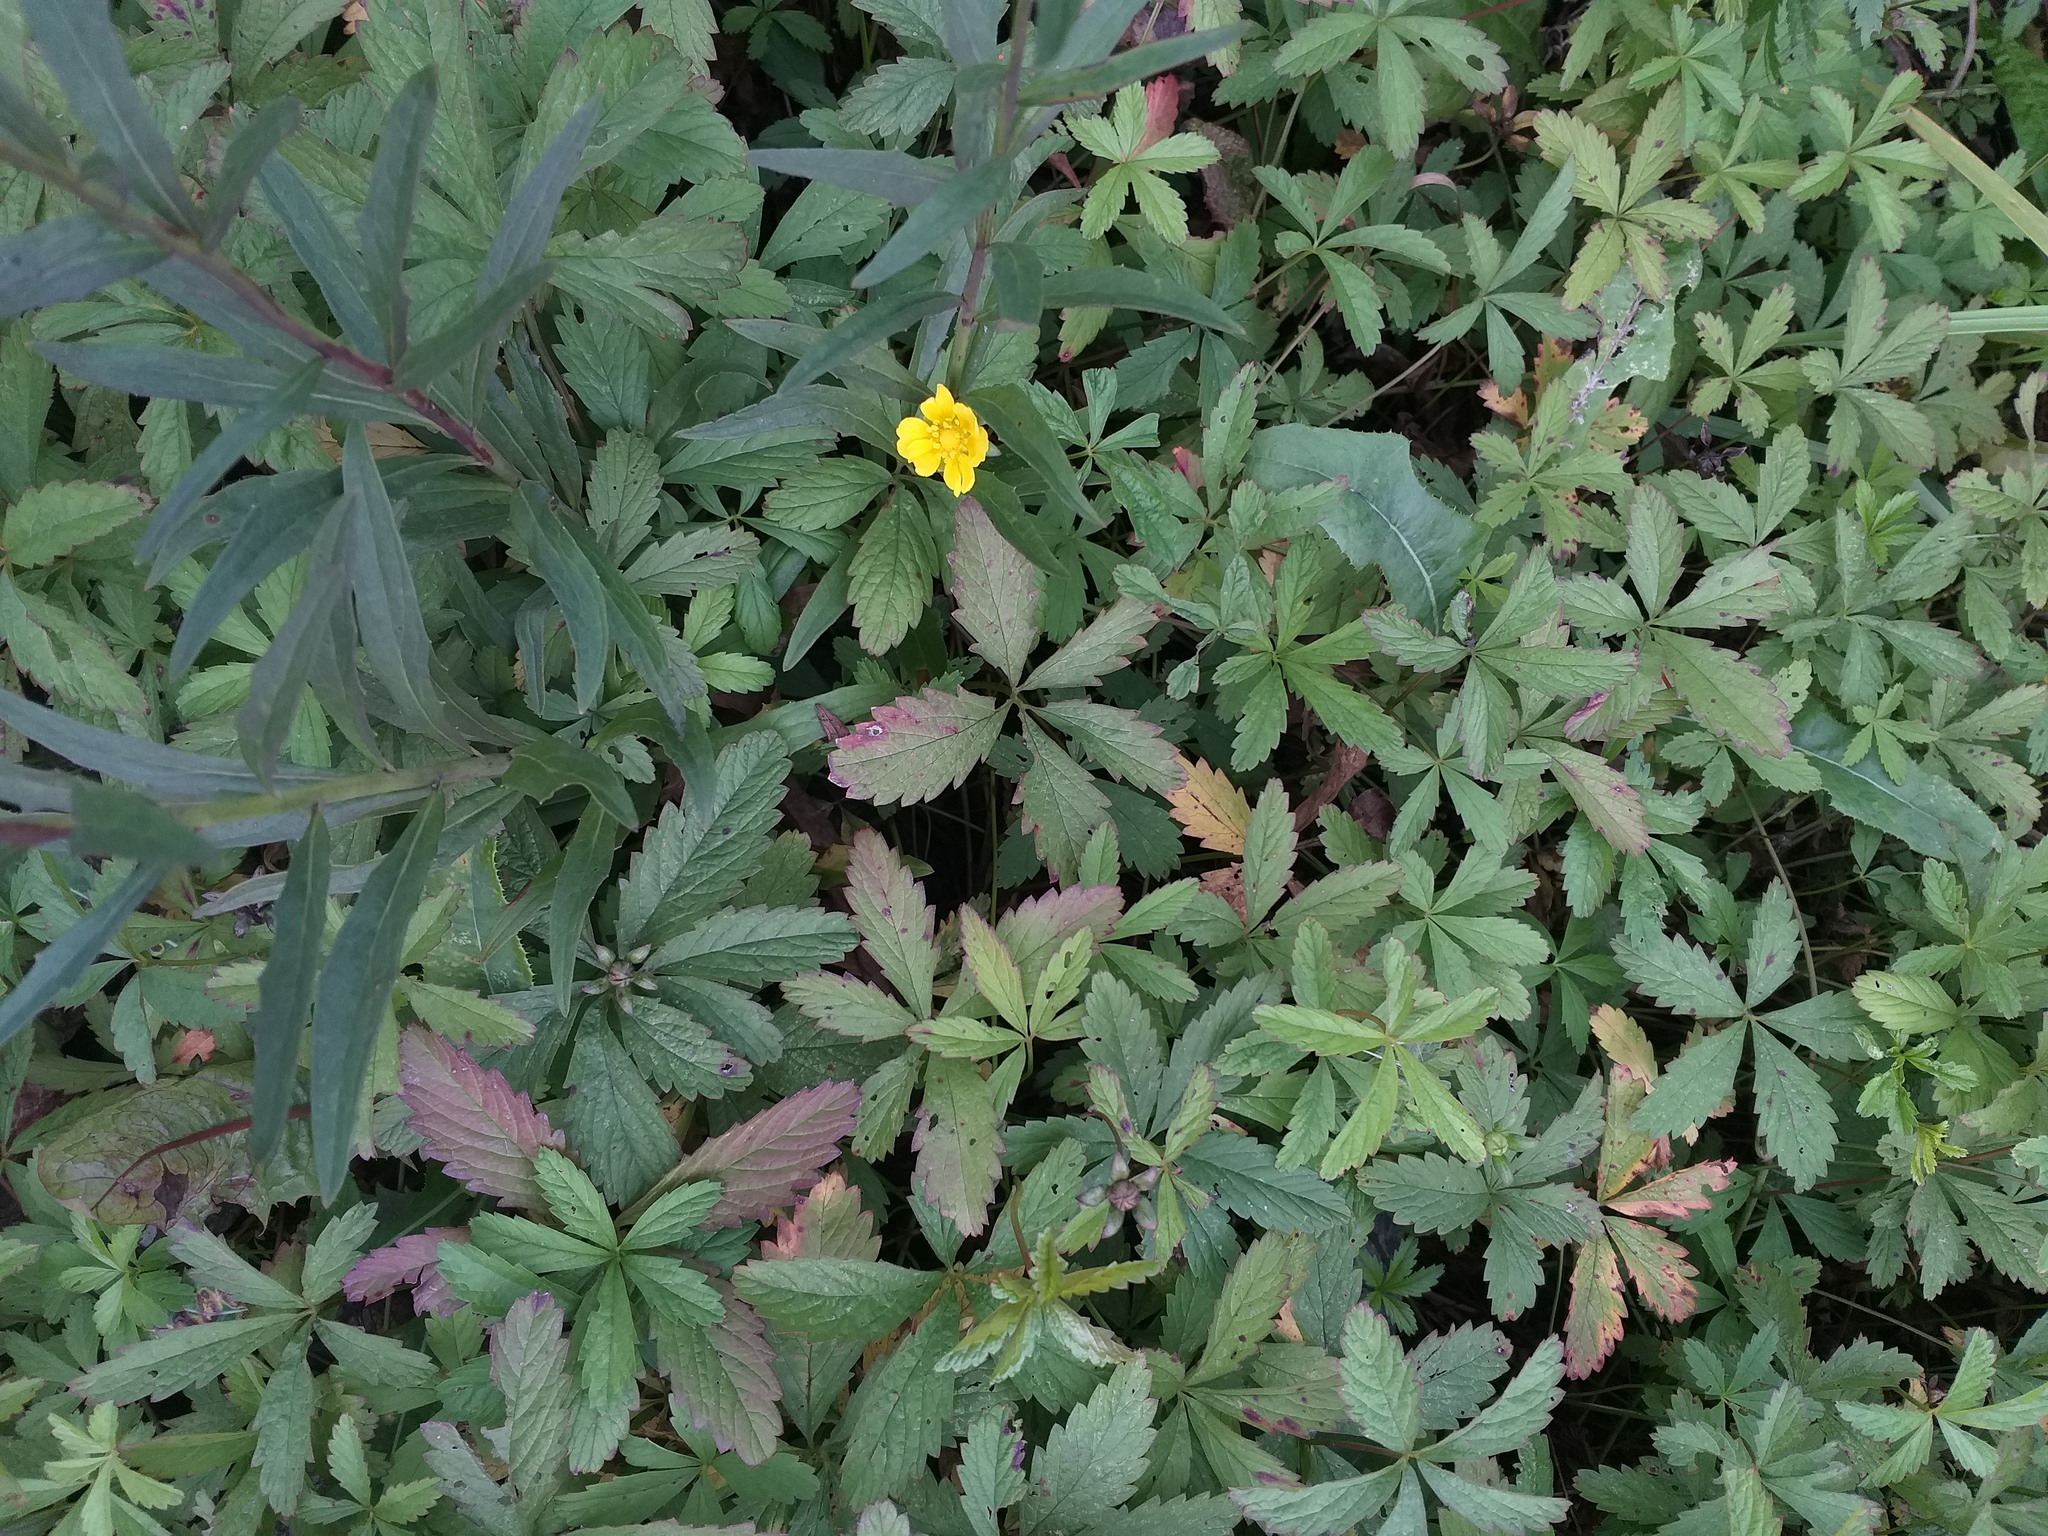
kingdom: Plantae
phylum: Tracheophyta
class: Magnoliopsida
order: Rosales
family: Rosaceae
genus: Potentilla
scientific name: Potentilla reptans
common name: Creeping cinquefoil
